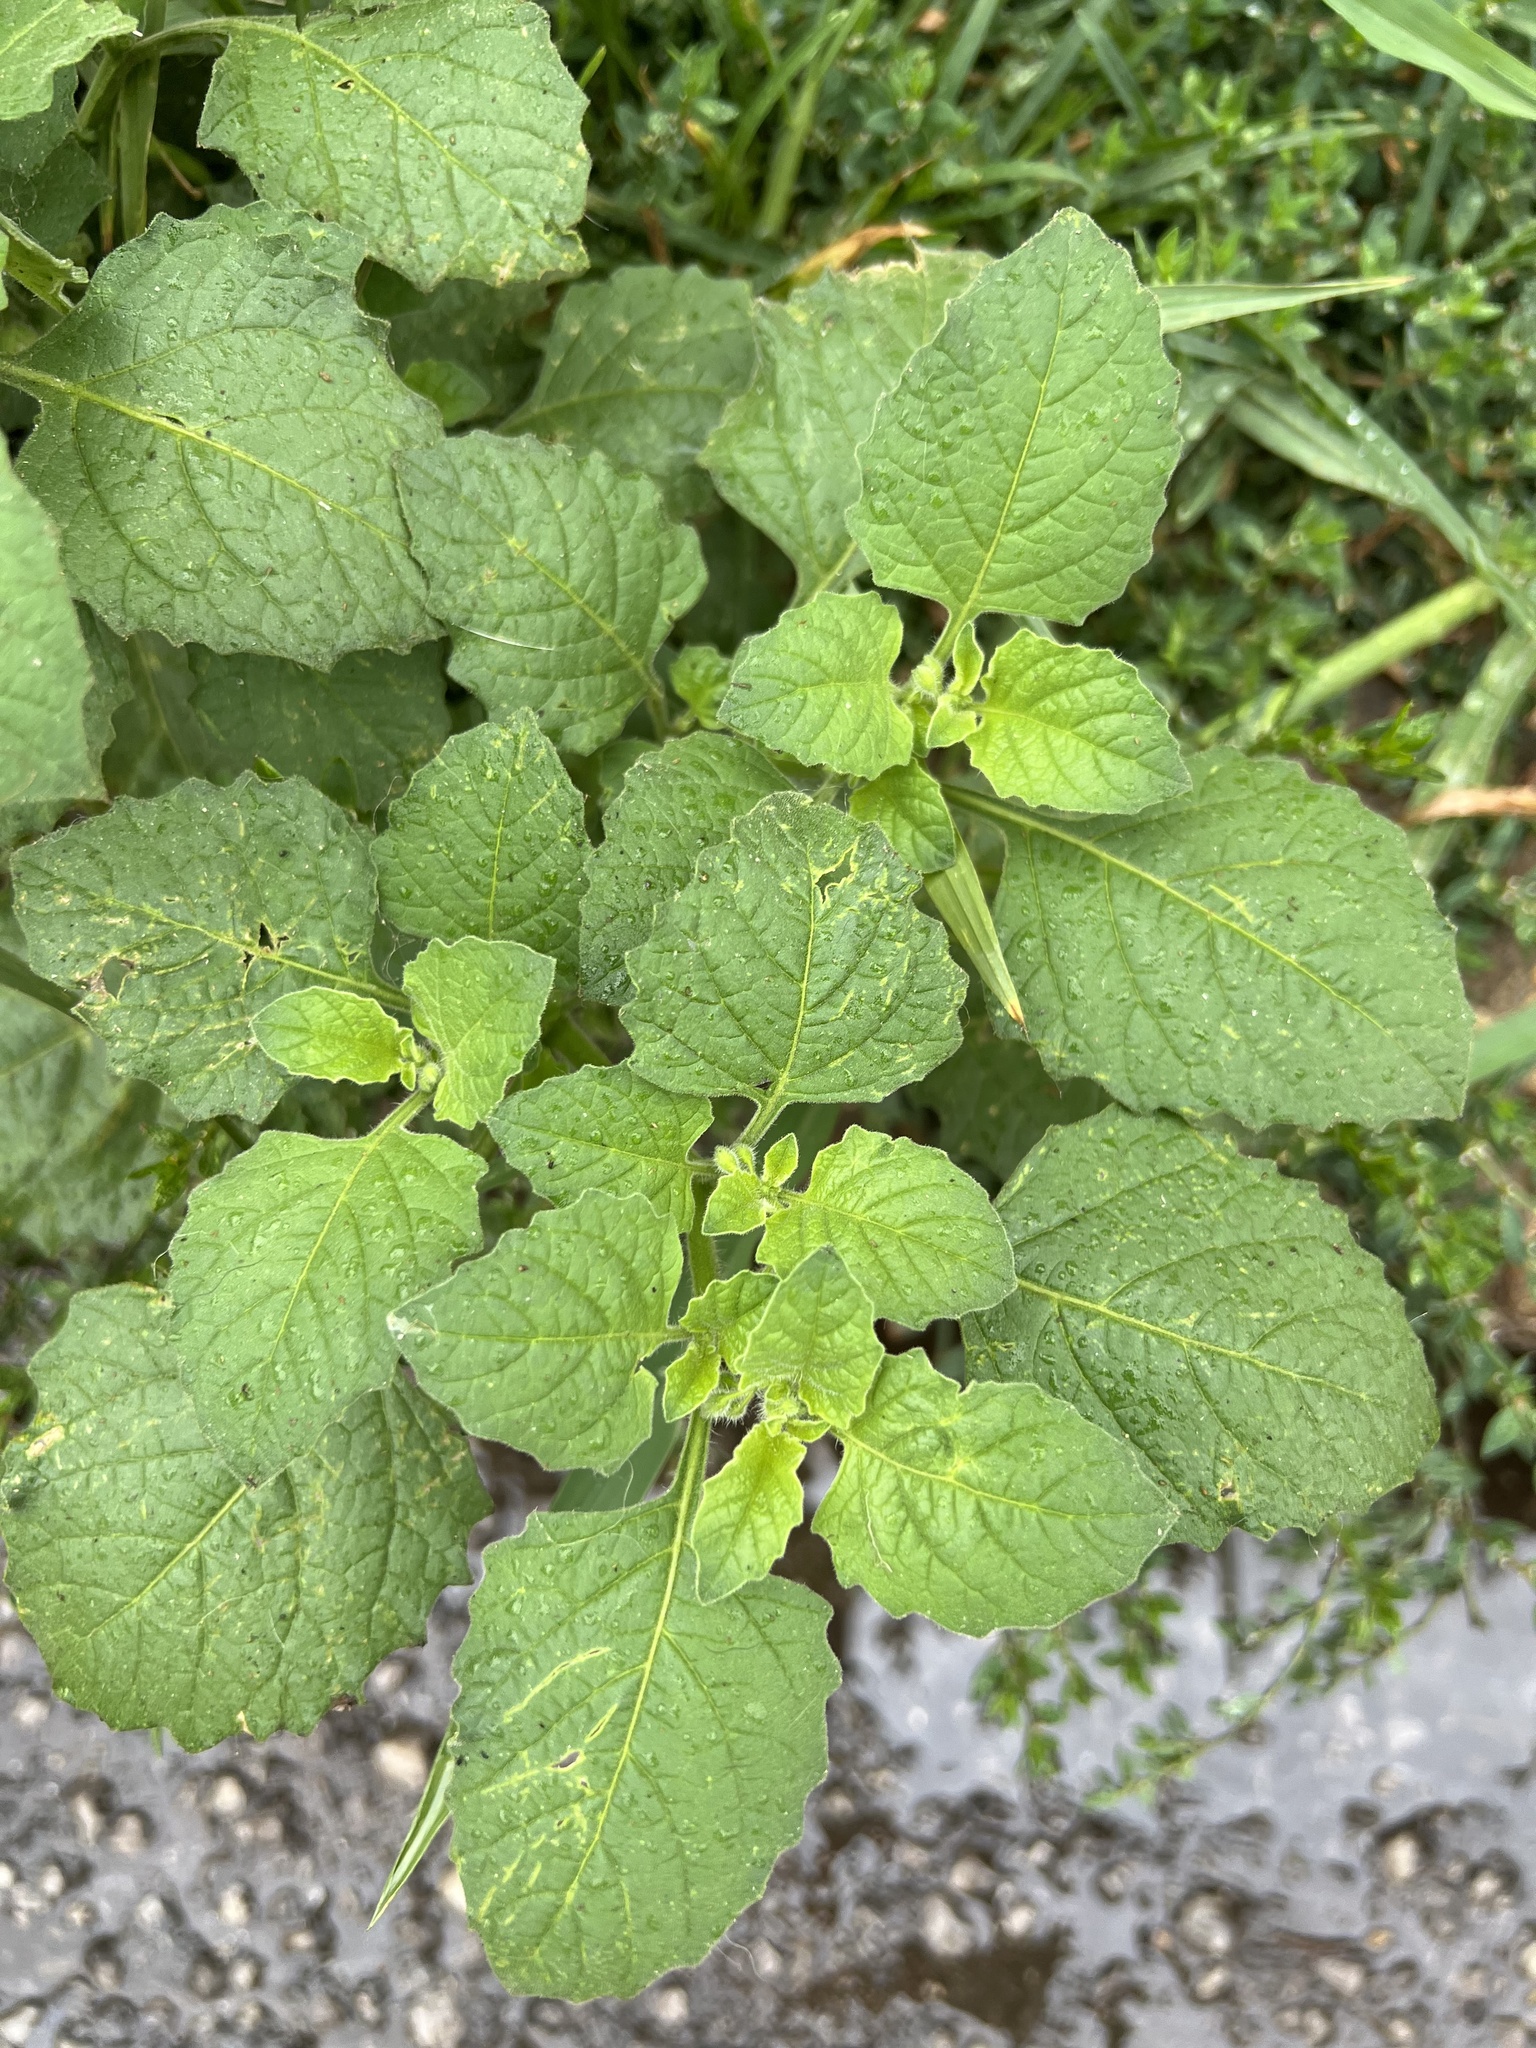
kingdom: Plantae
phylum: Tracheophyta
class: Magnoliopsida
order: Solanales
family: Solanaceae
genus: Solanum
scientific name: Solanum sarrachoides
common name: Leafy-fruited nightshade
